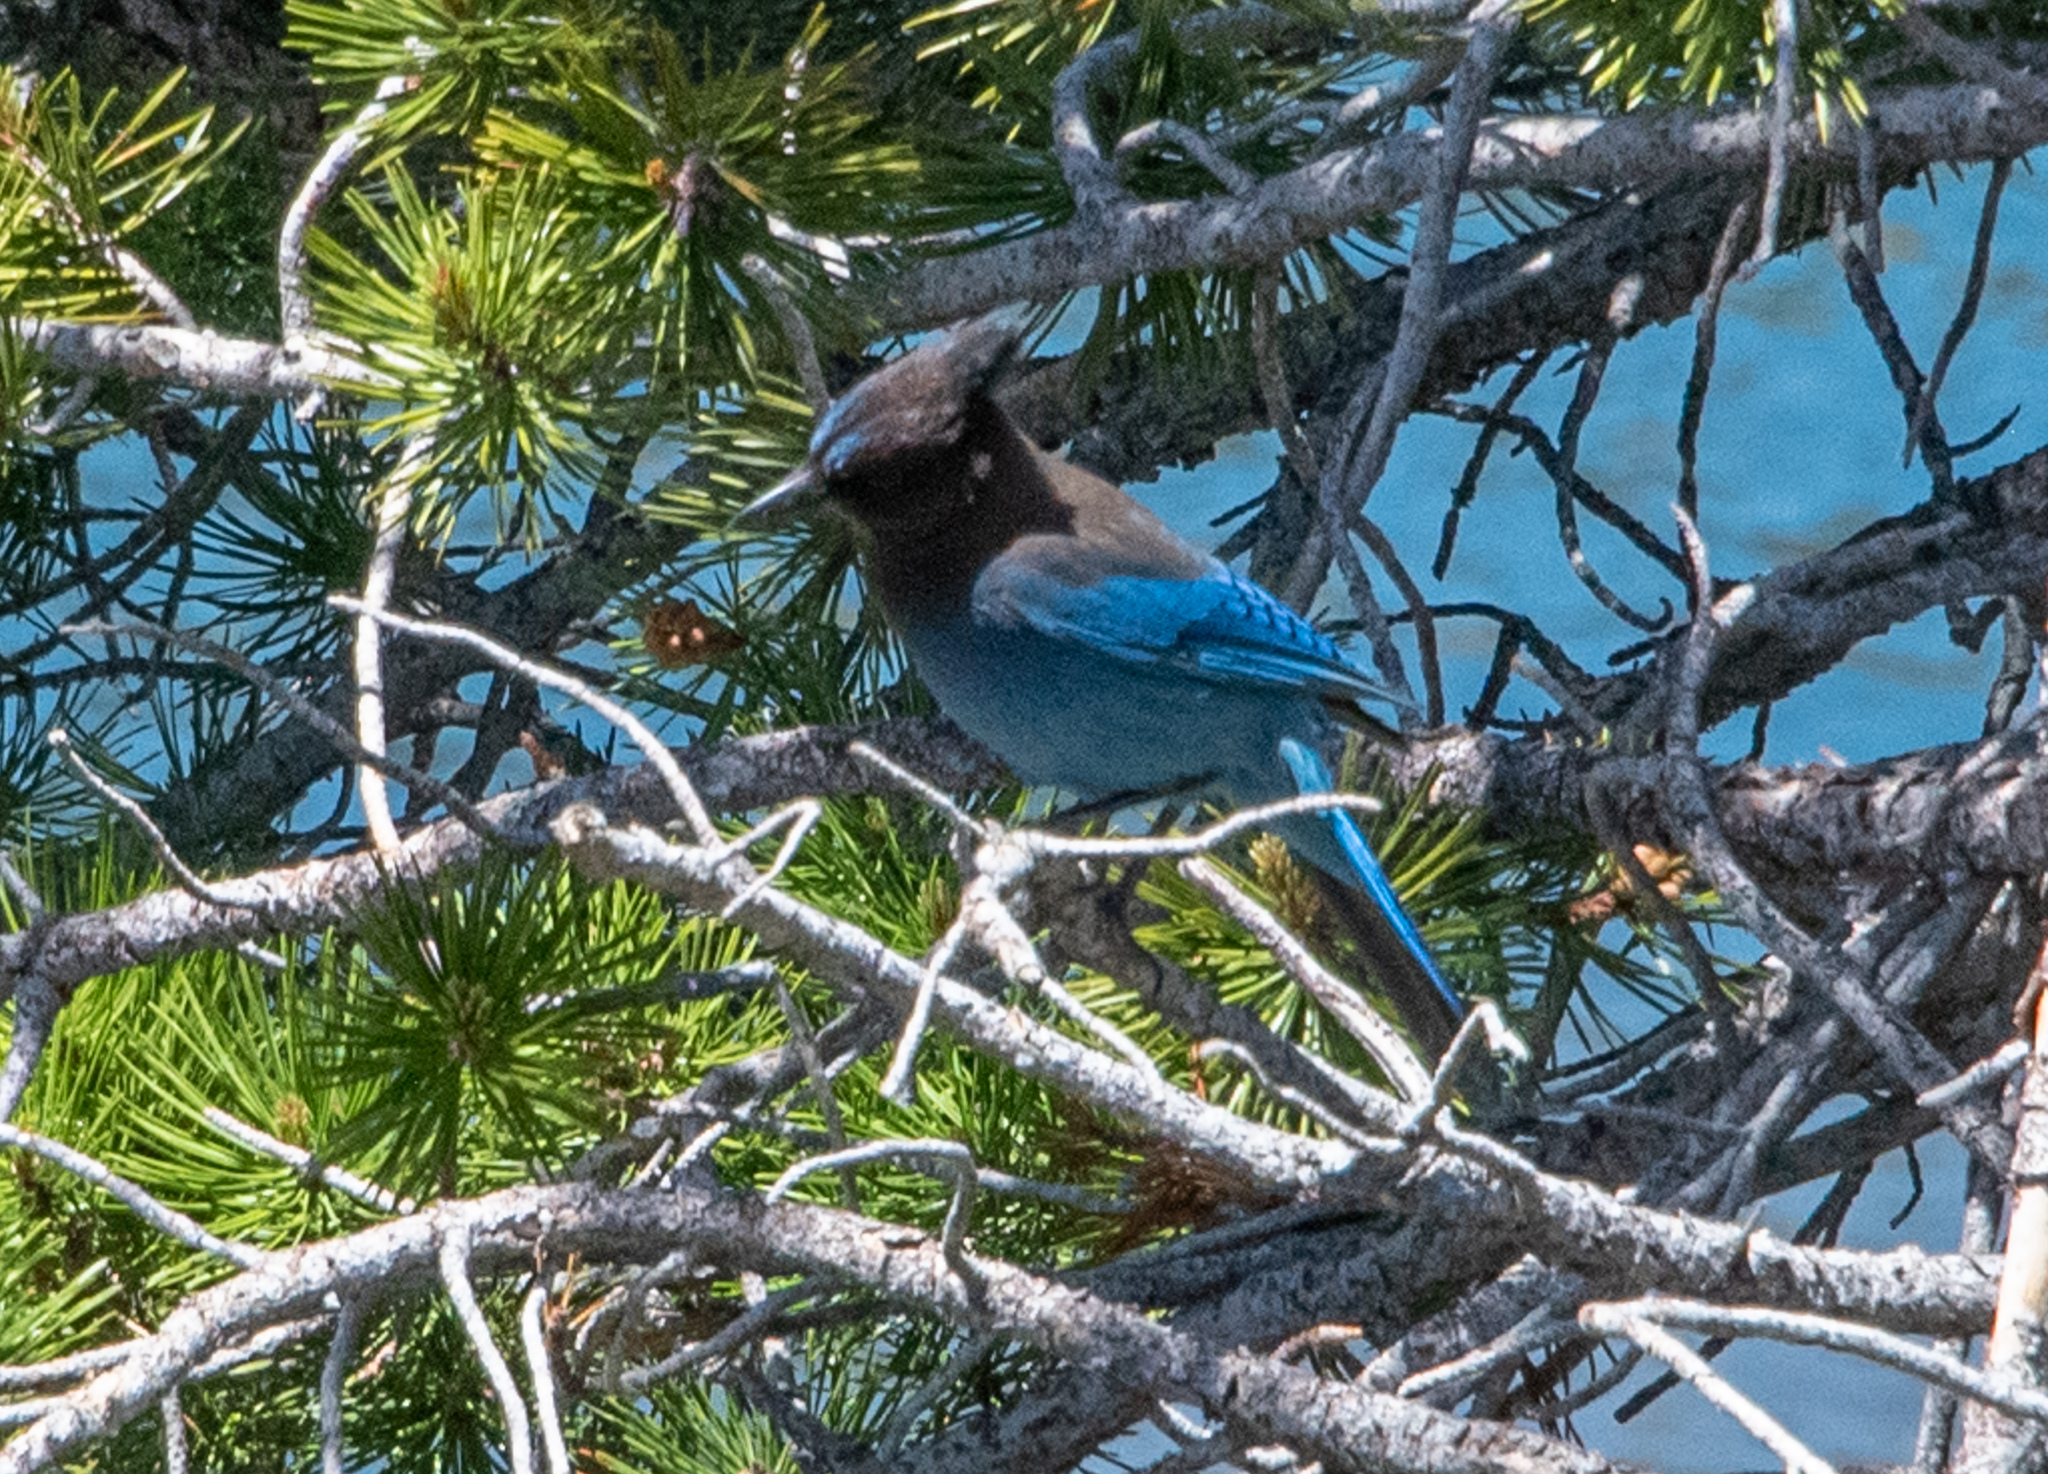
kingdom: Animalia
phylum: Chordata
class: Aves
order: Passeriformes
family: Corvidae
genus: Cyanocitta
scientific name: Cyanocitta stelleri
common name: Steller's jay
